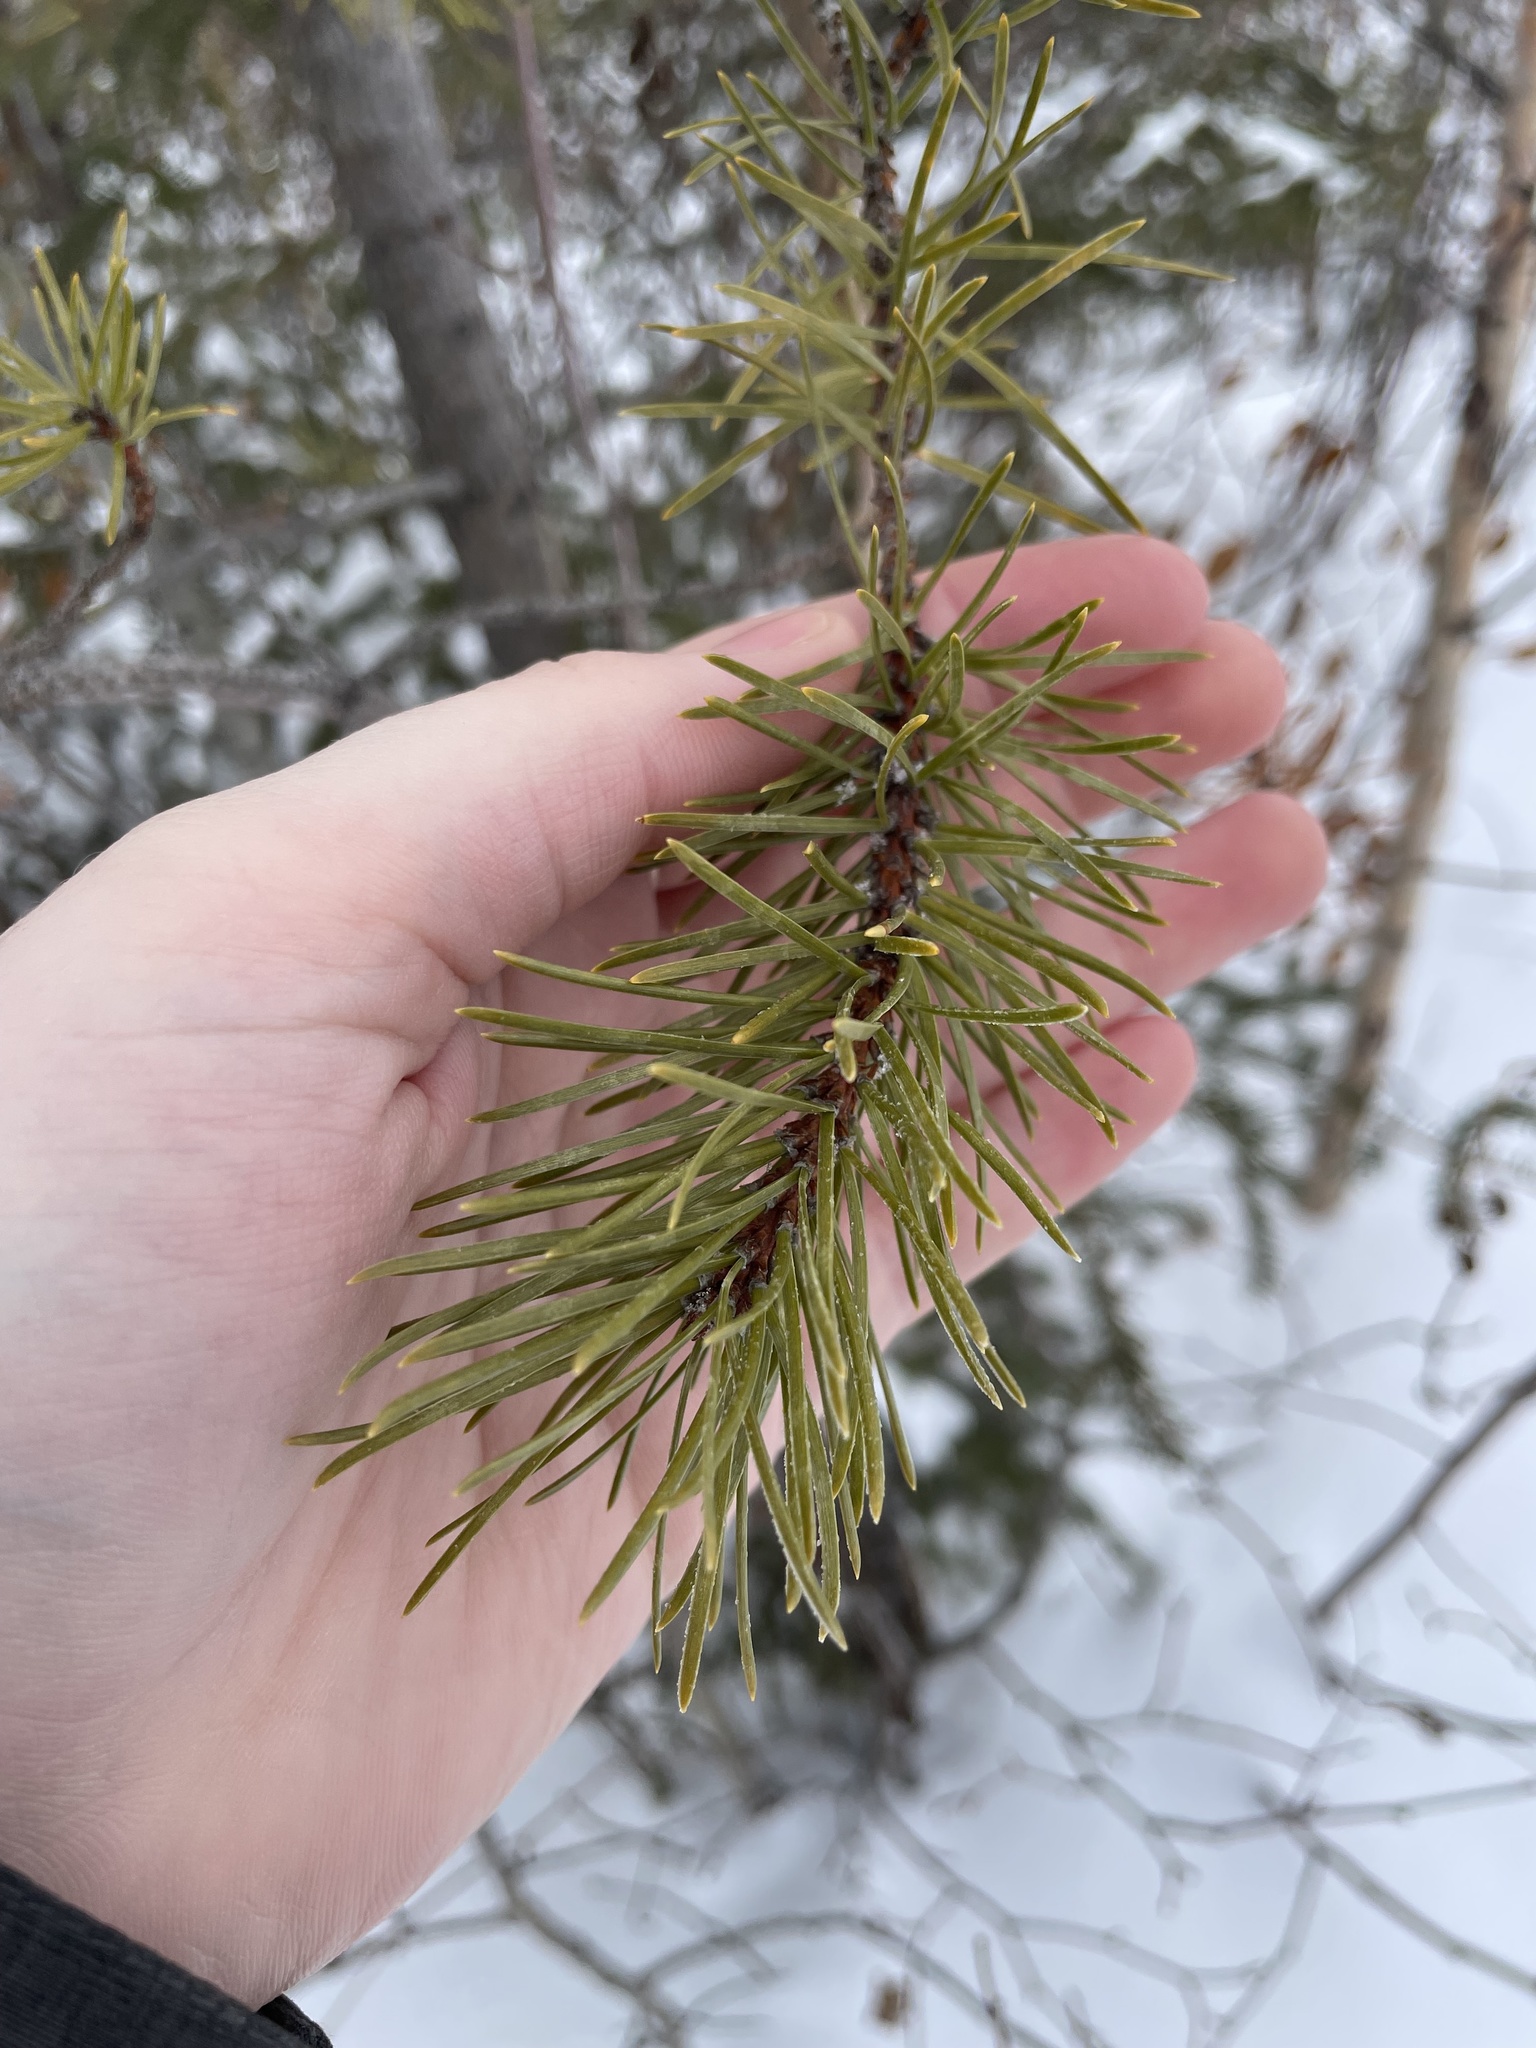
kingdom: Plantae
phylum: Tracheophyta
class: Pinopsida
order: Pinales
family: Pinaceae
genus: Pinus
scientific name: Pinus banksiana
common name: Jack pine
